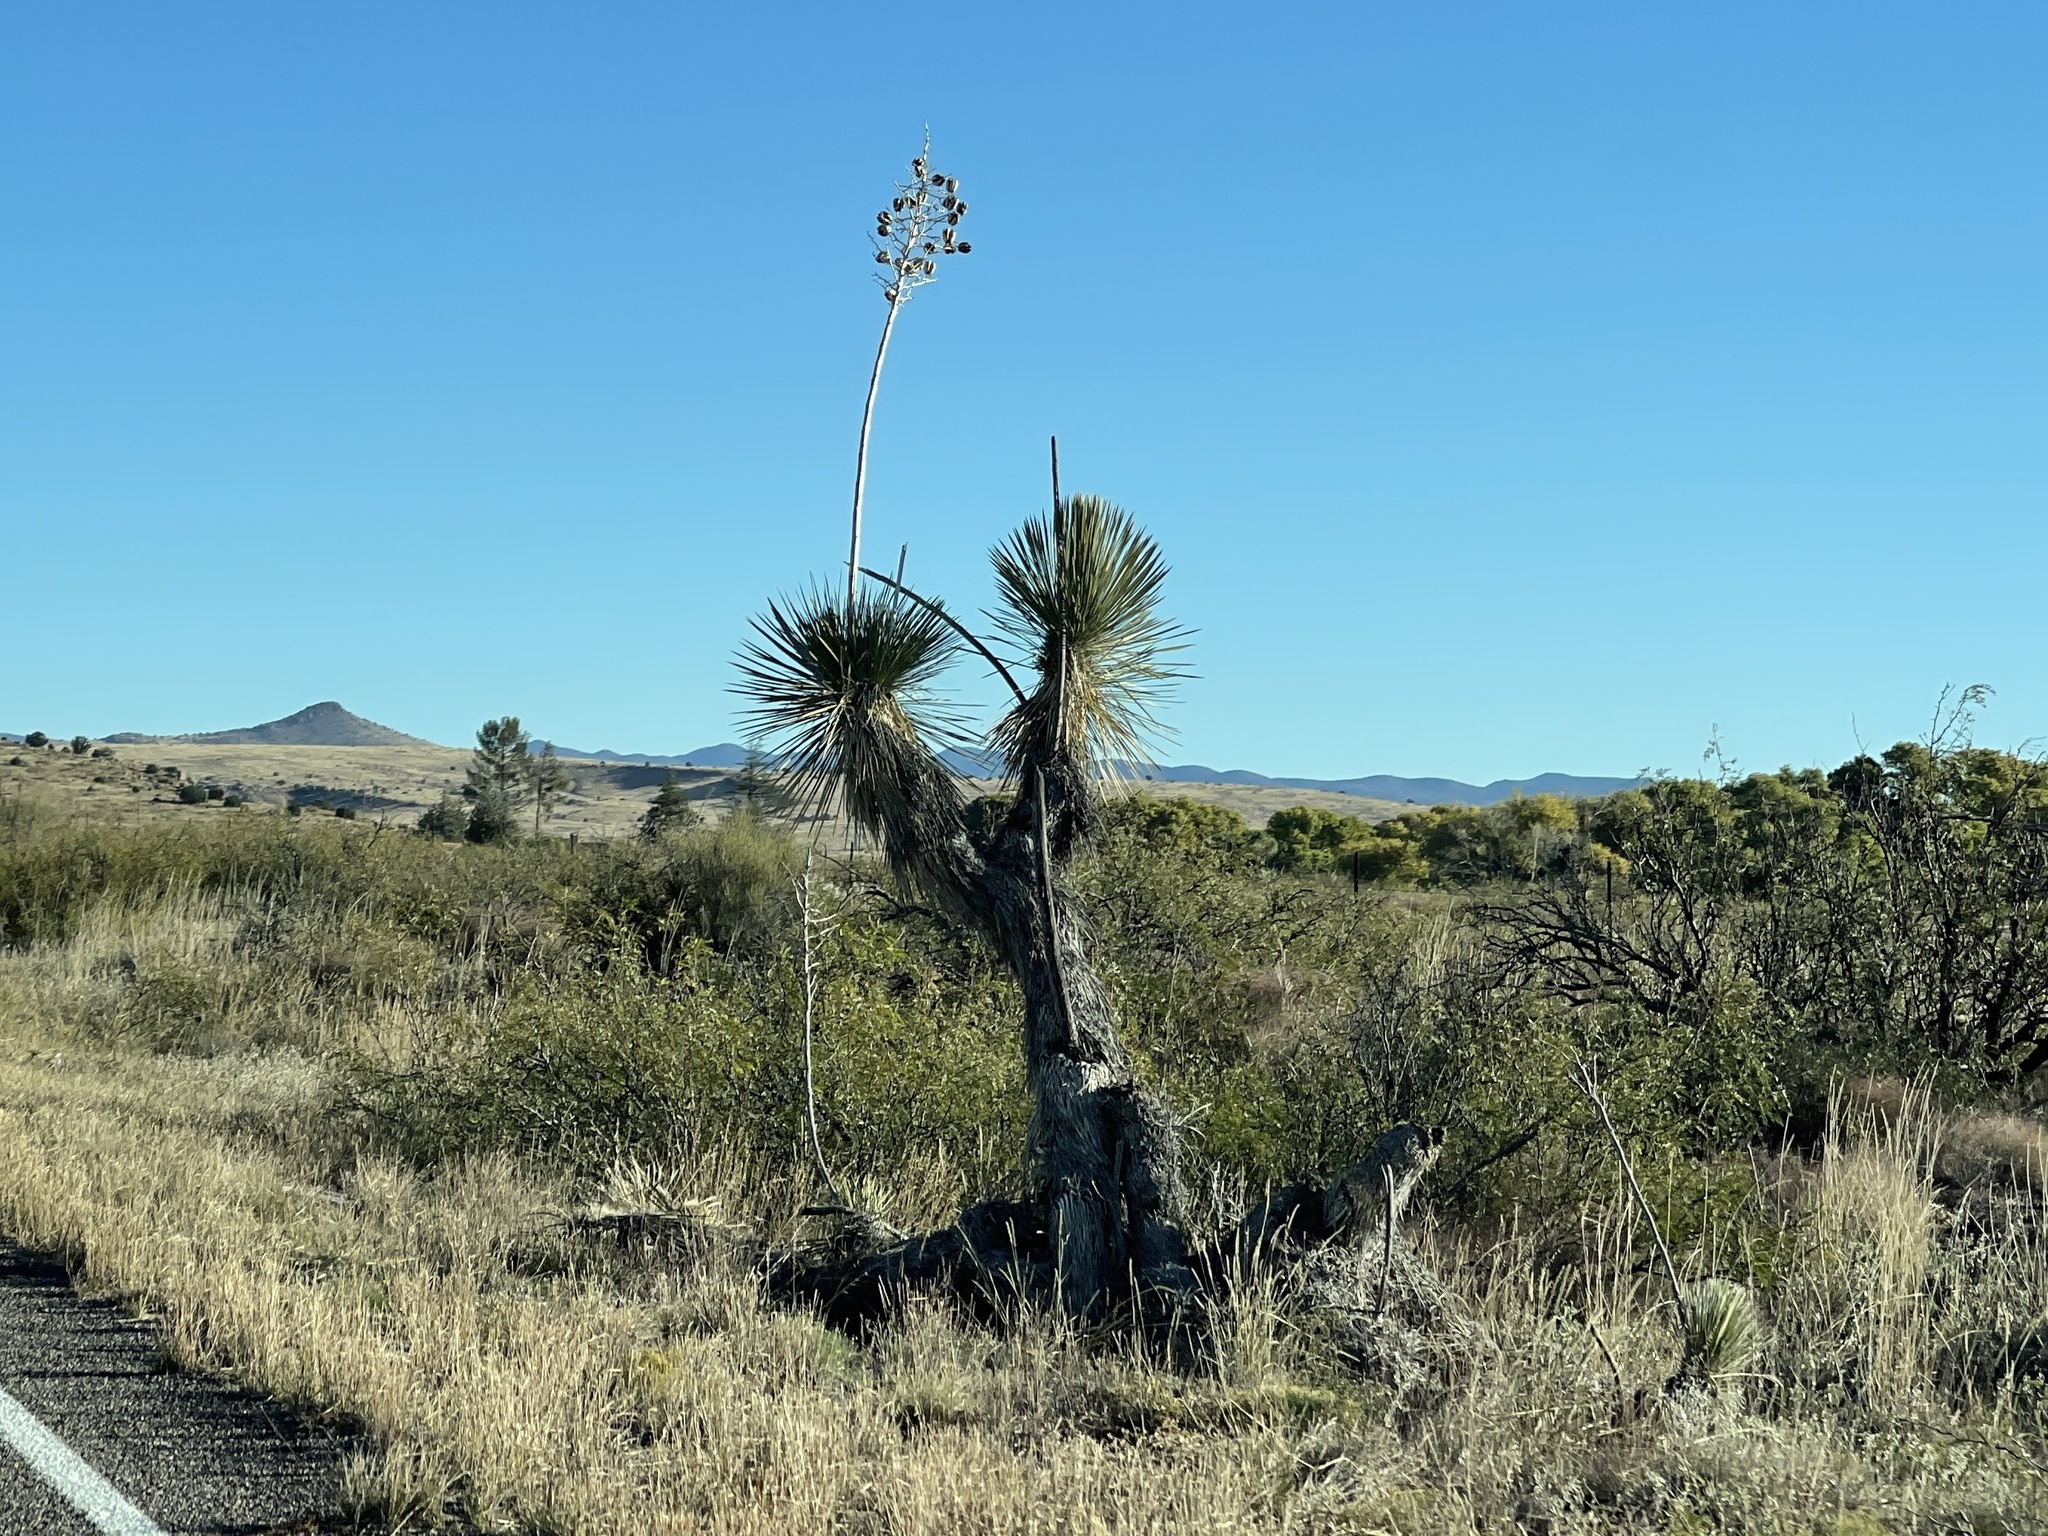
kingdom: Plantae
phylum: Tracheophyta
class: Liliopsida
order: Asparagales
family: Asparagaceae
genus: Yucca
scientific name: Yucca elata
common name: Palmella
